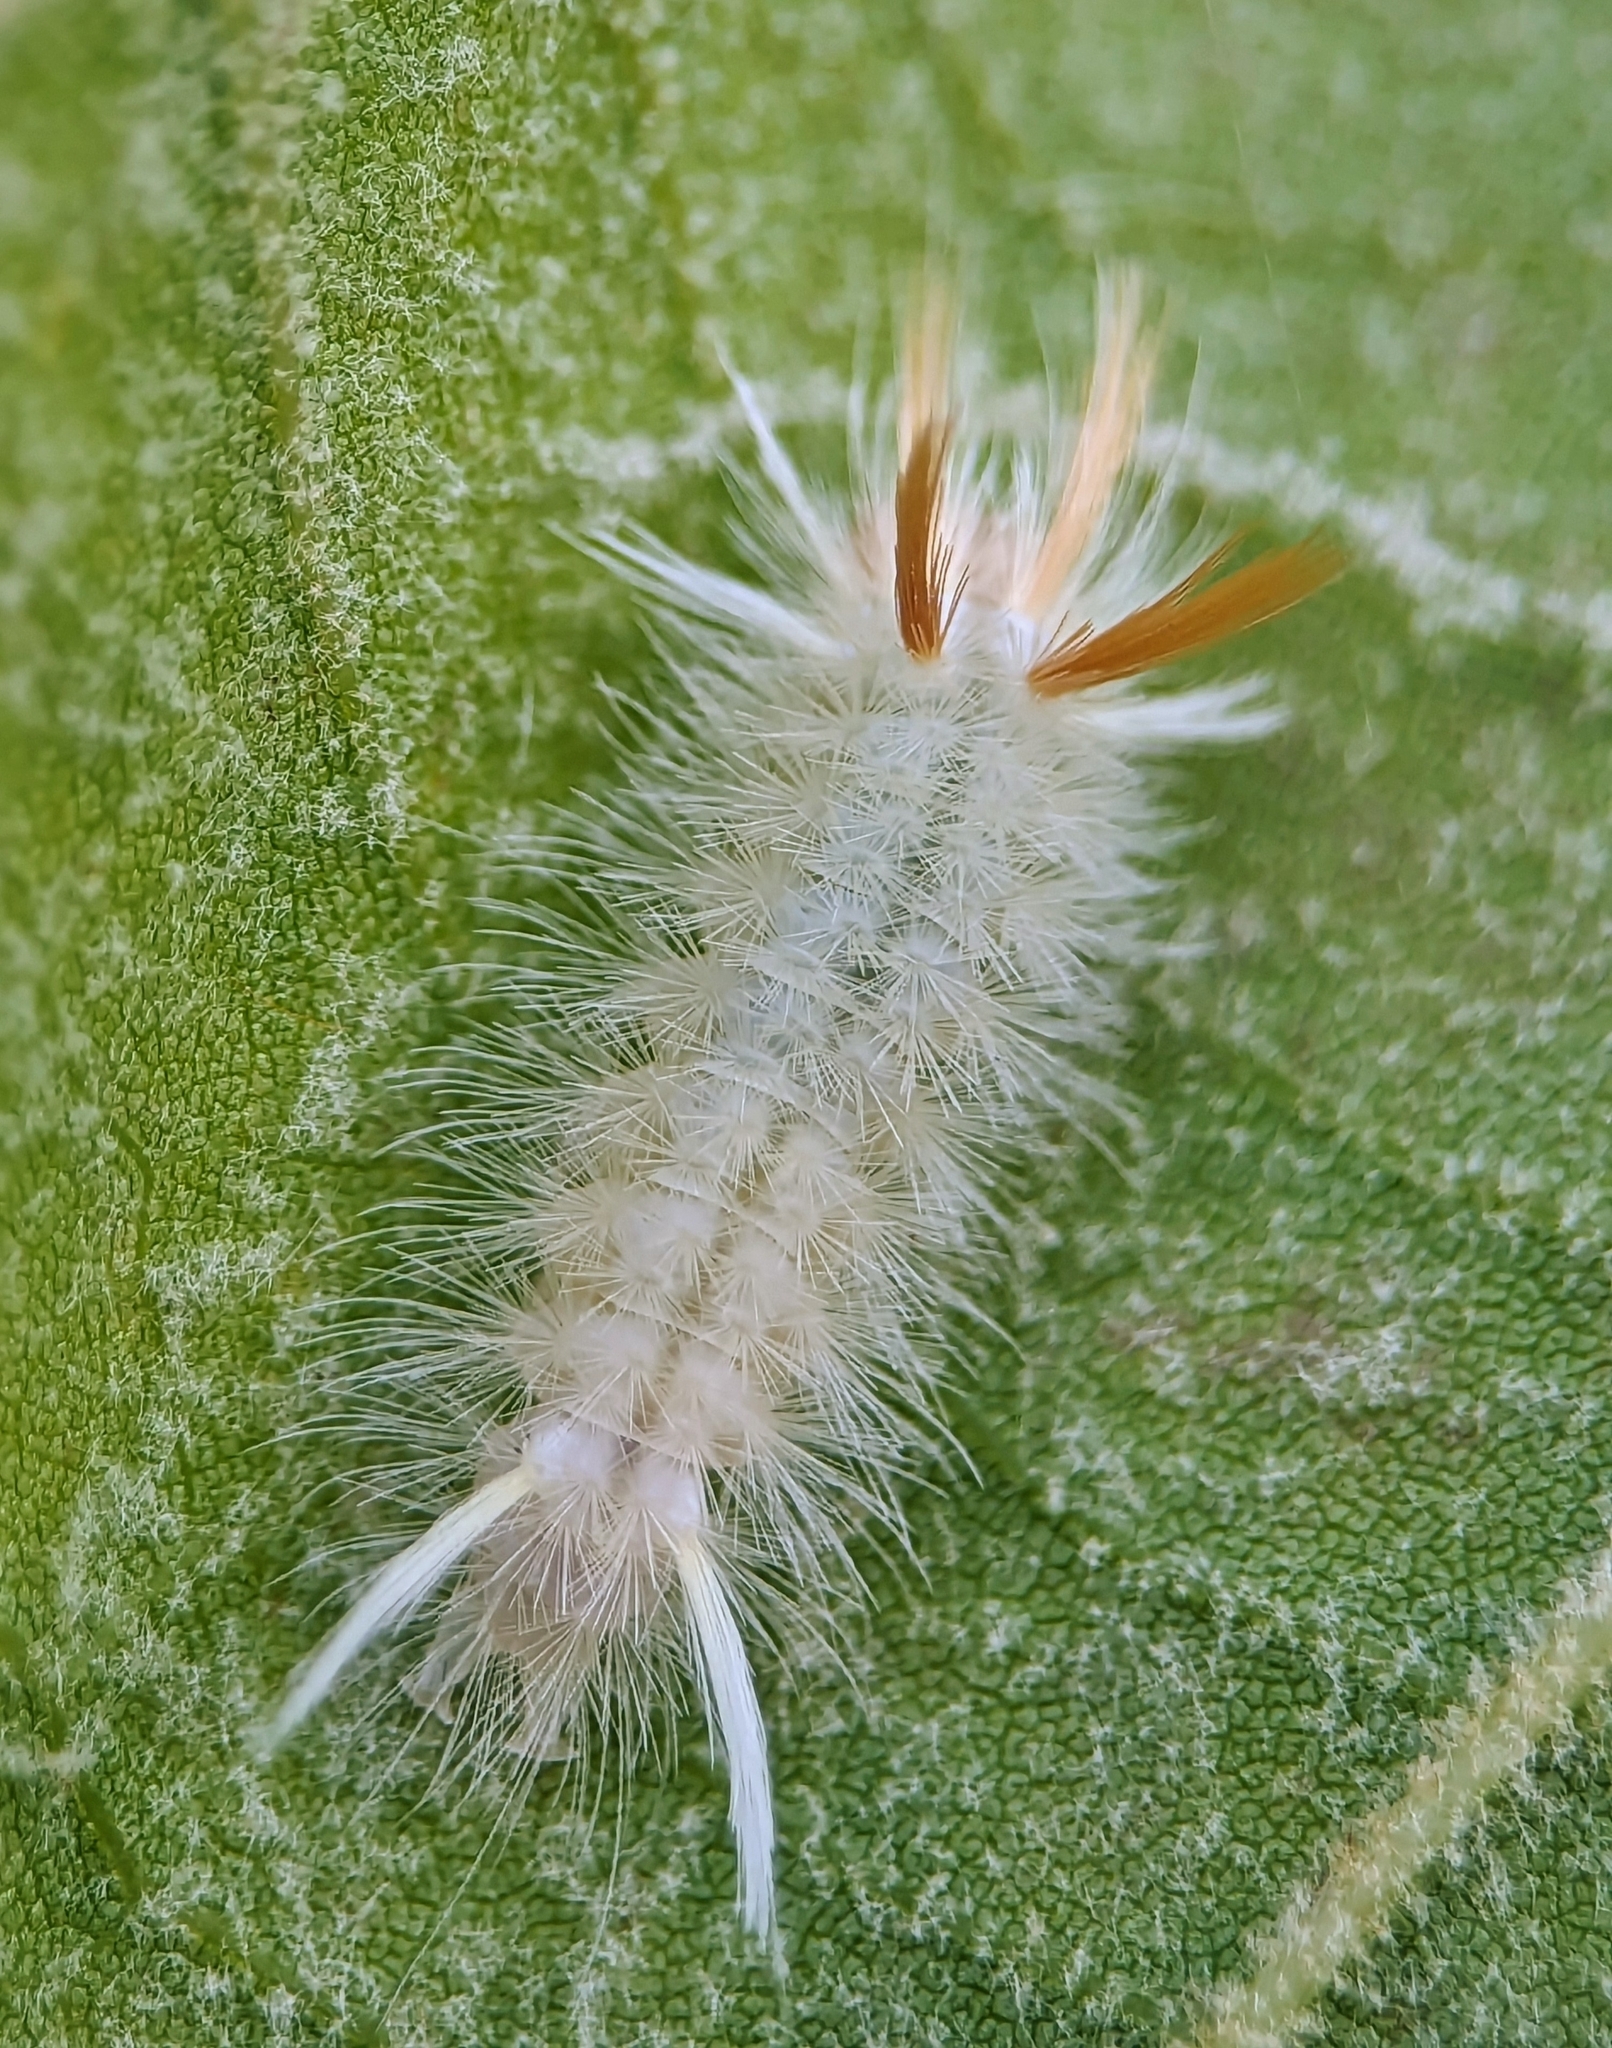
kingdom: Animalia
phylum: Arthropoda
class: Insecta
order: Lepidoptera
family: Erebidae
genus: Halysidota
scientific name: Halysidota harrisii
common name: Sycamore tussock moth
